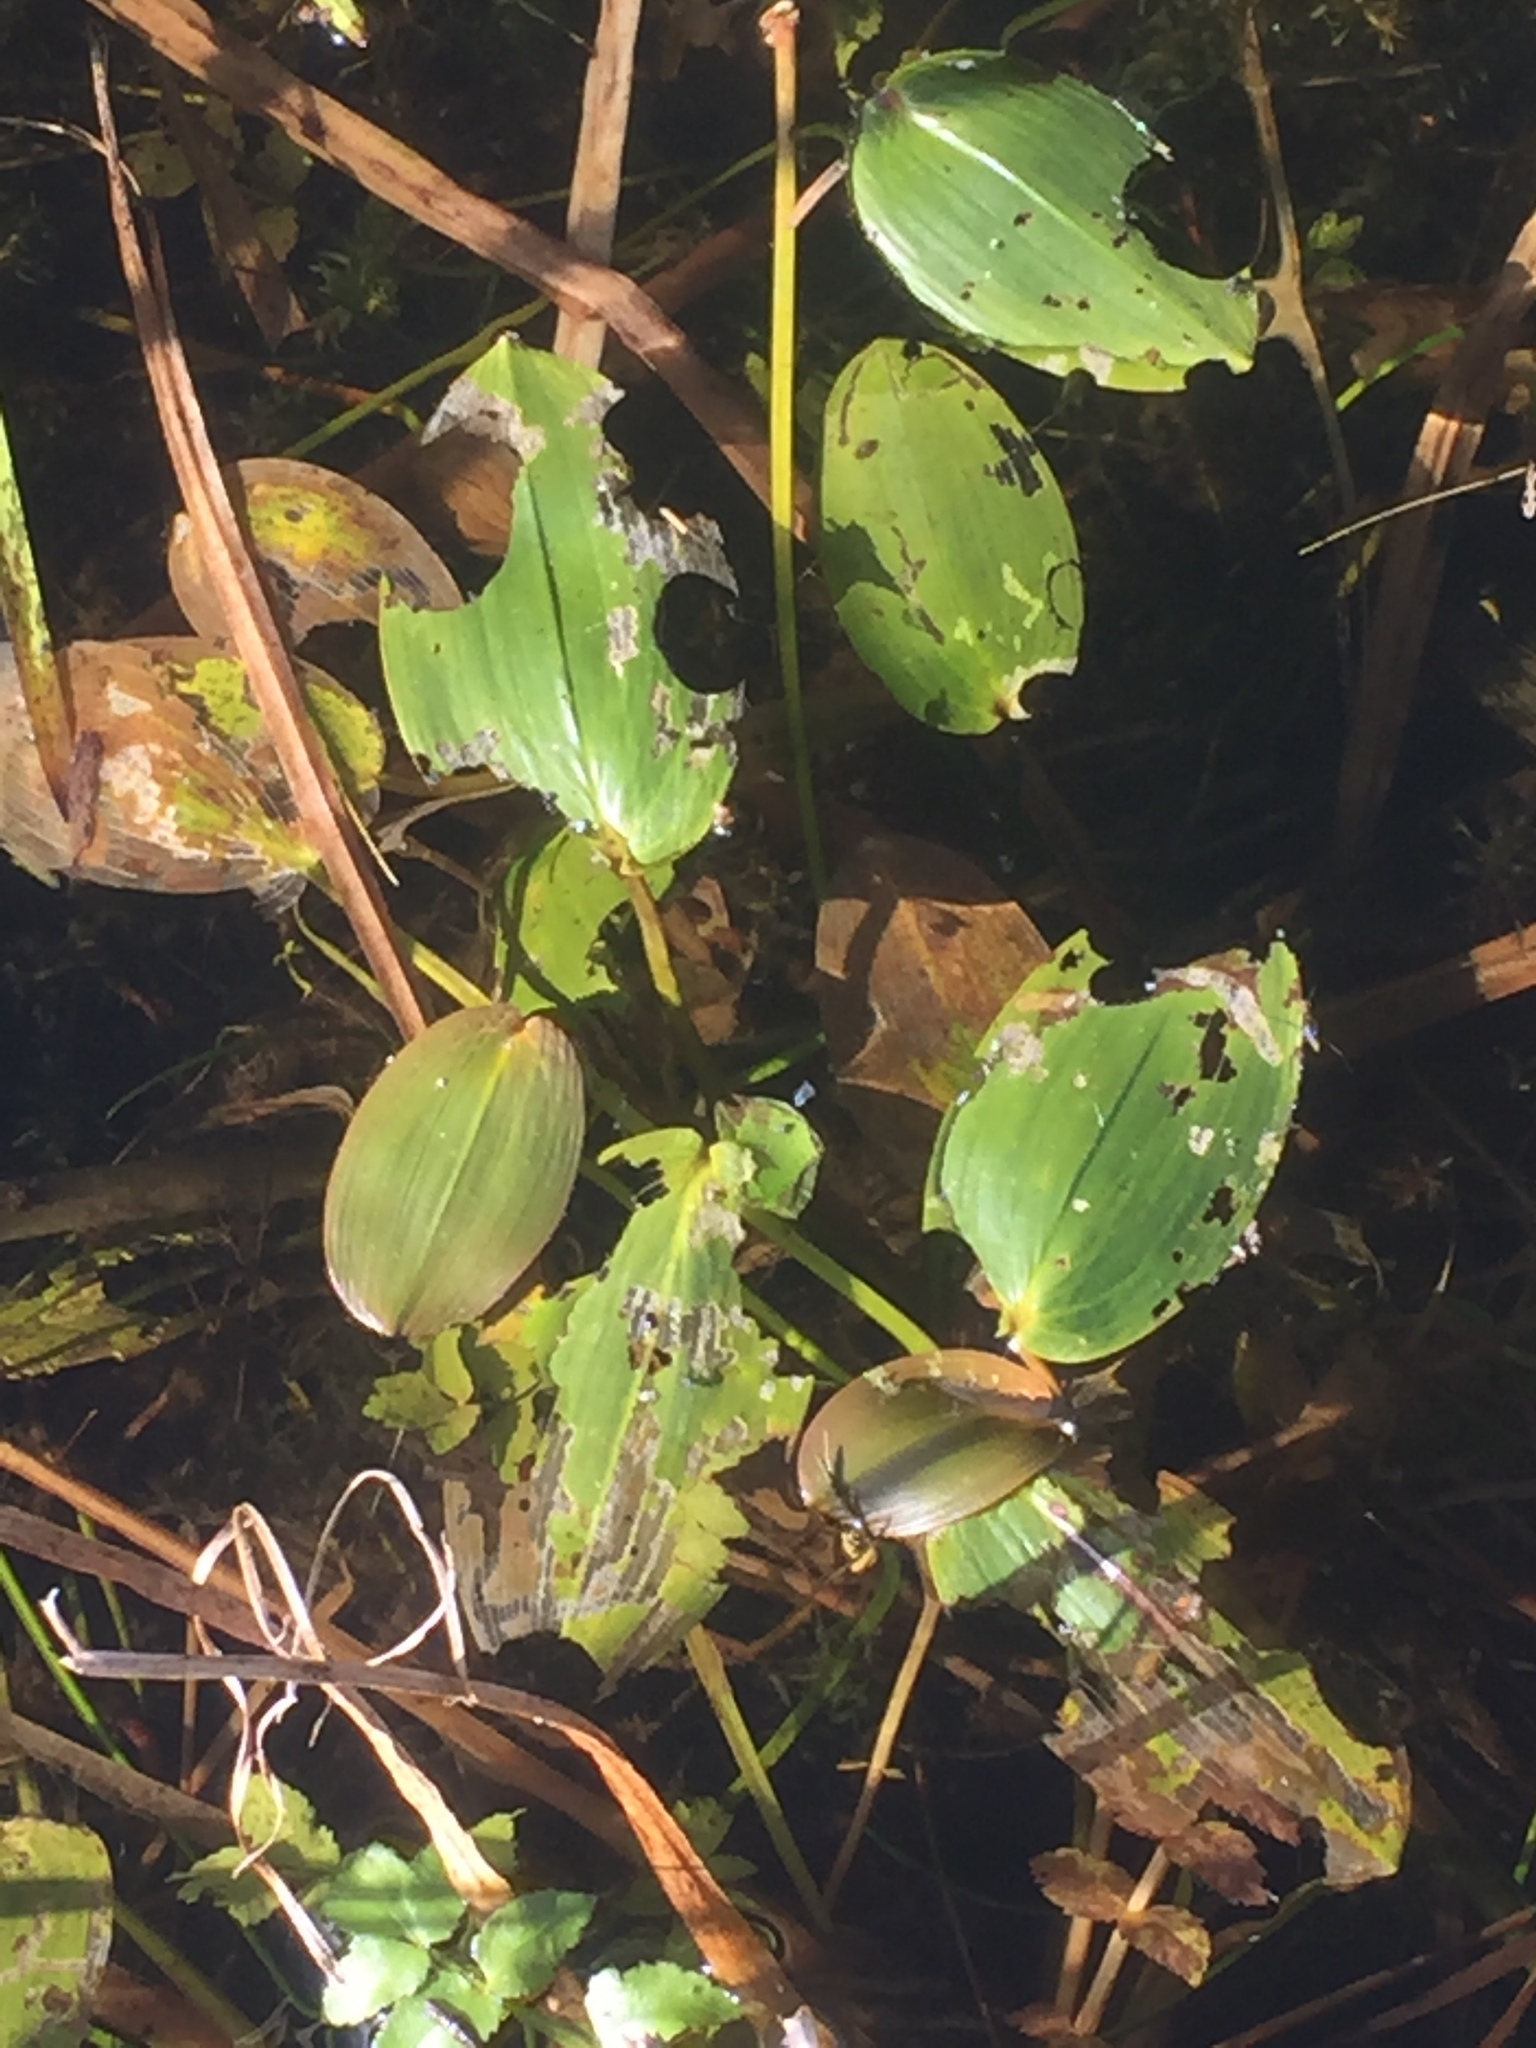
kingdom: Plantae
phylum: Tracheophyta
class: Liliopsida
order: Alismatales
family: Potamogetonaceae
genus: Potamogeton
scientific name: Potamogeton natans
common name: Broad-leaved pondweed
